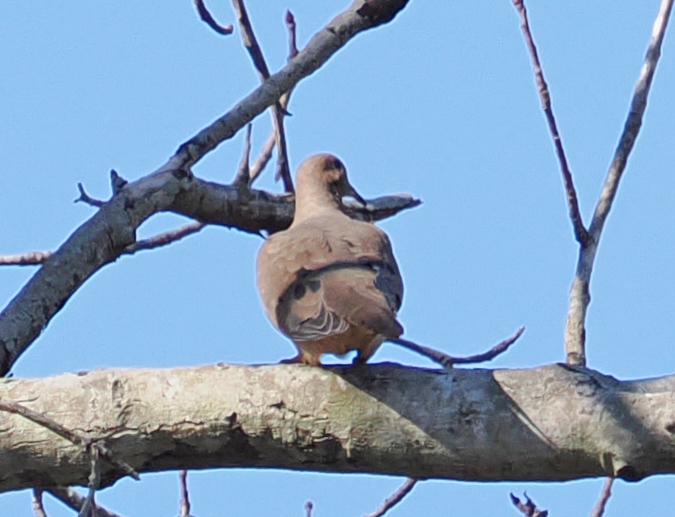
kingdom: Animalia
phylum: Chordata
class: Aves
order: Columbiformes
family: Columbidae
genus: Zenaida
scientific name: Zenaida macroura
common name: Mourning dove
